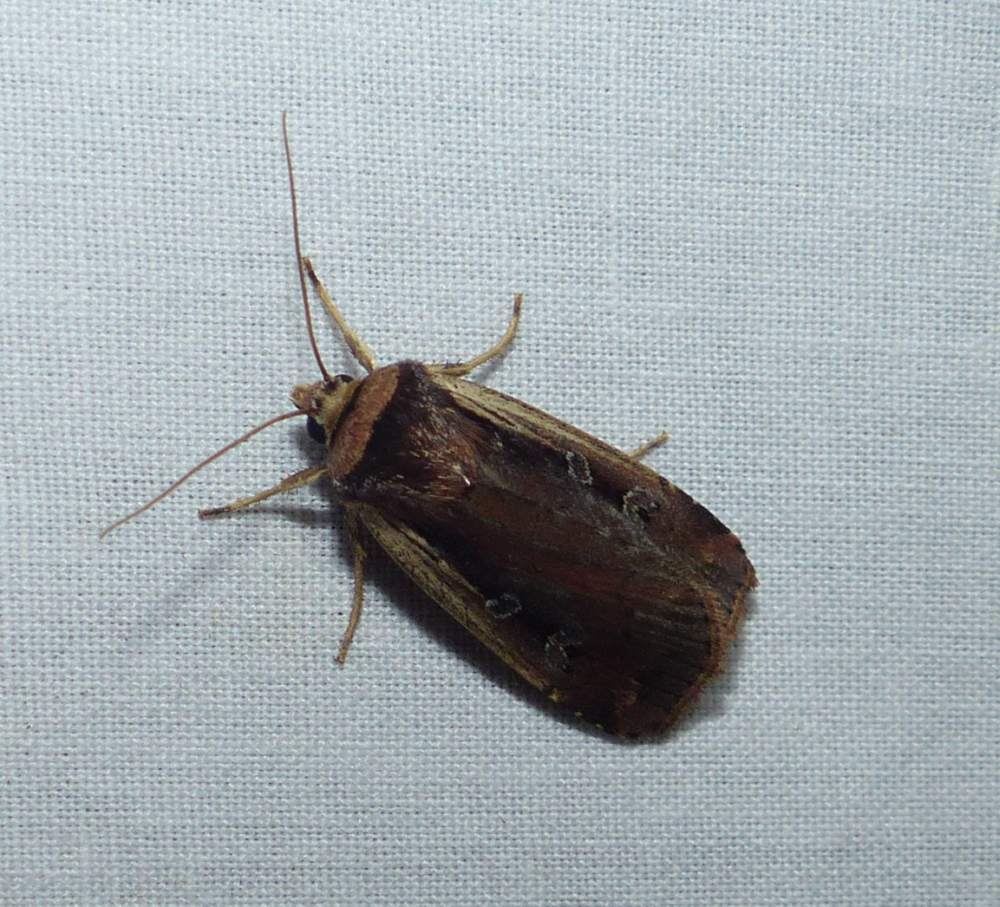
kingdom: Animalia
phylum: Arthropoda
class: Insecta
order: Lepidoptera
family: Noctuidae
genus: Ochropleura
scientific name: Ochropleura implecta
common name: Flame-shouldered dart
